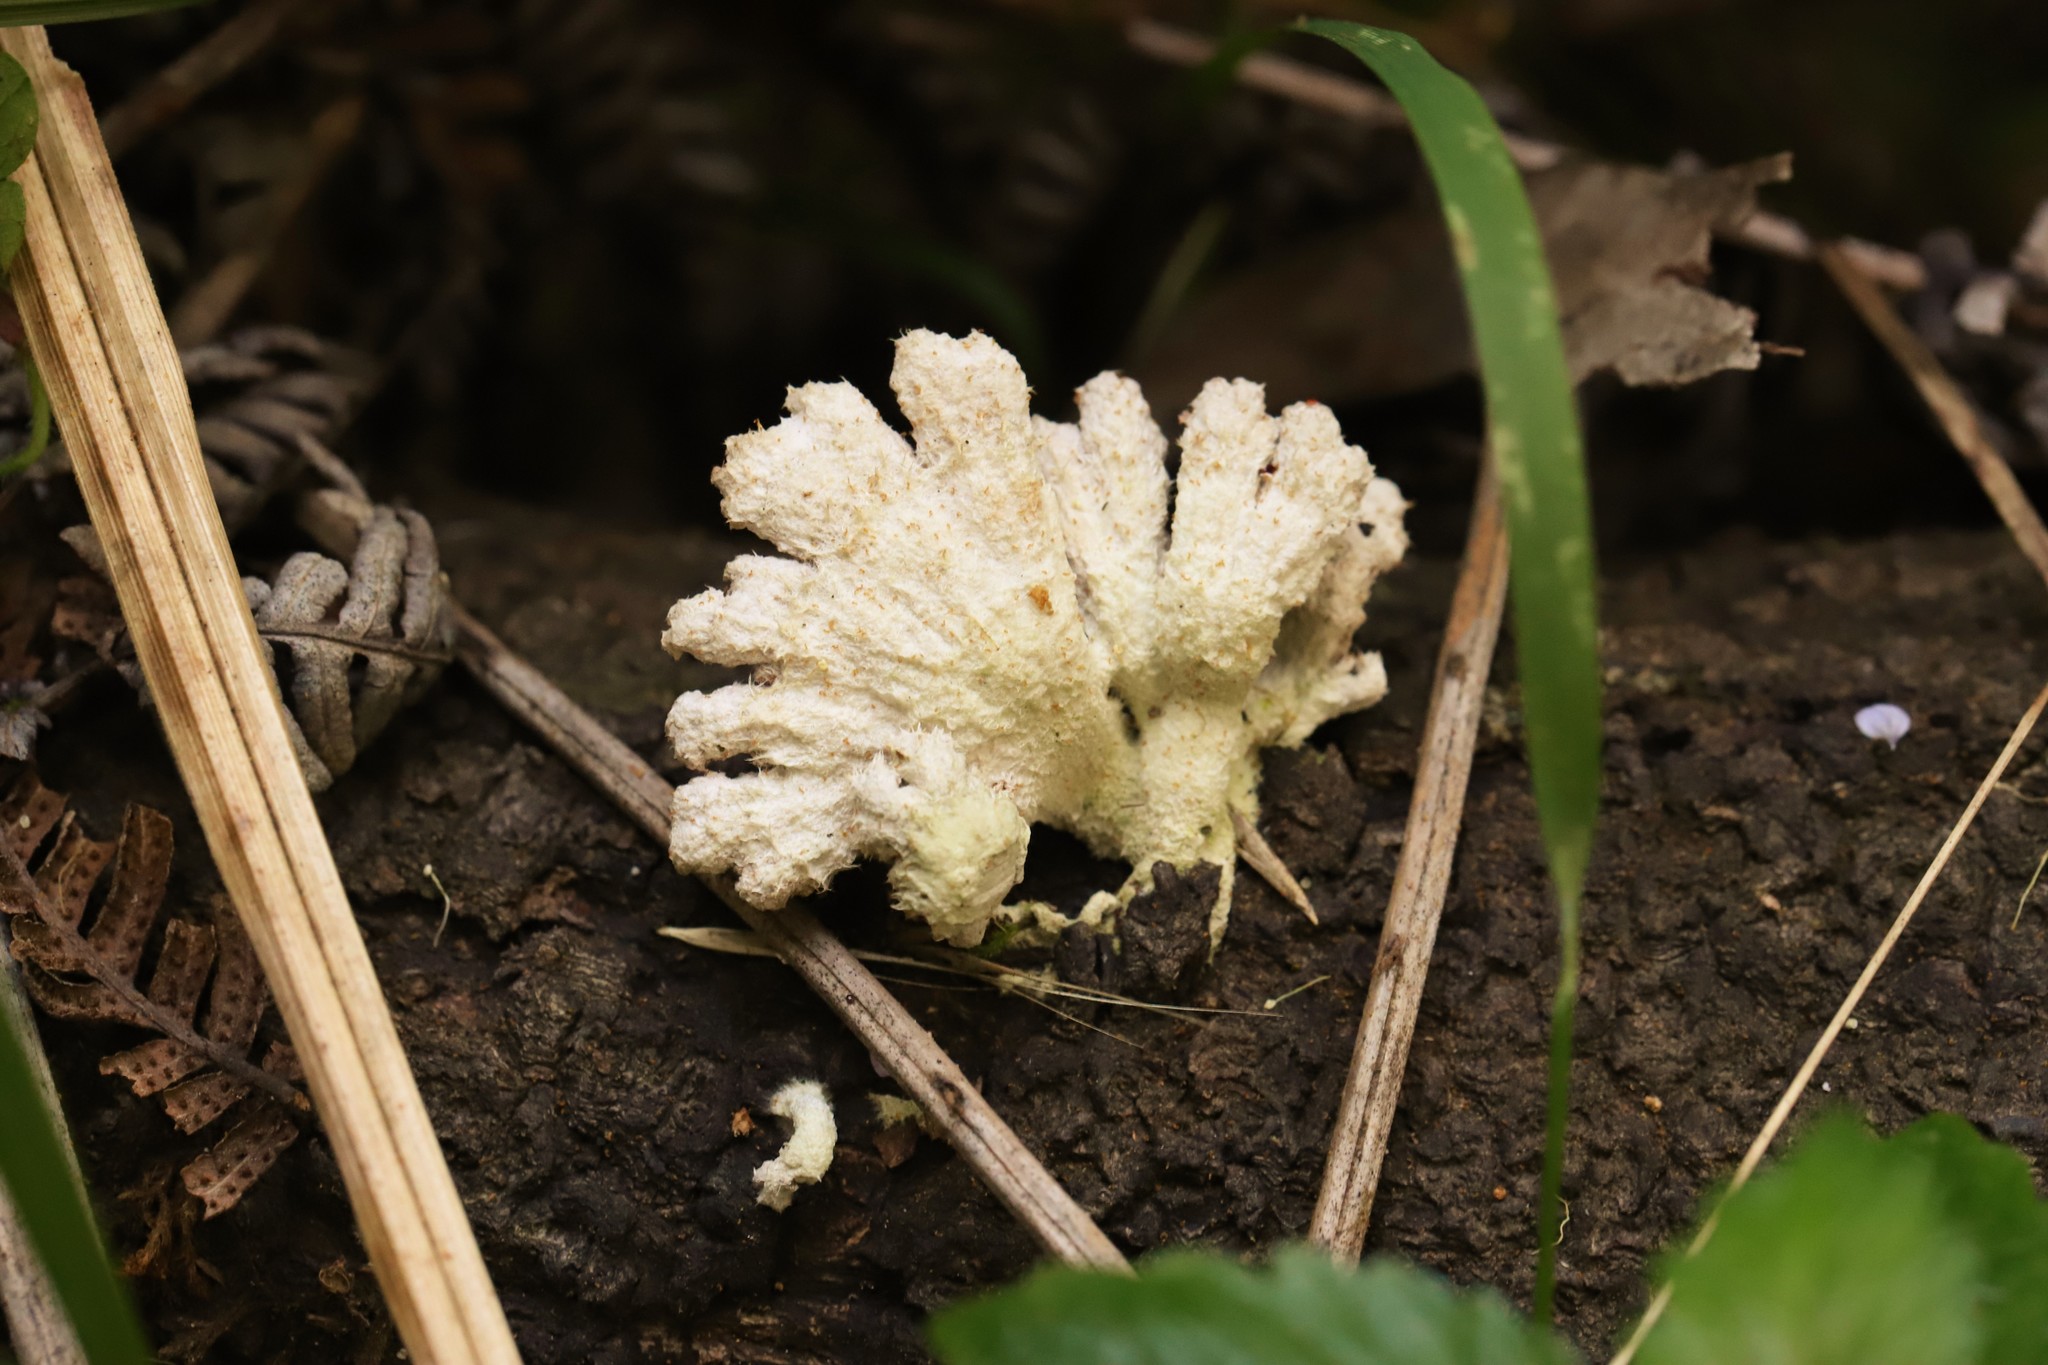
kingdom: Fungi
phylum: Basidiomycota
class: Agaricomycetes
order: Agaricales
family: Schizophyllaceae
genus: Schizophyllum
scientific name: Schizophyllum commune
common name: Common porecrust
